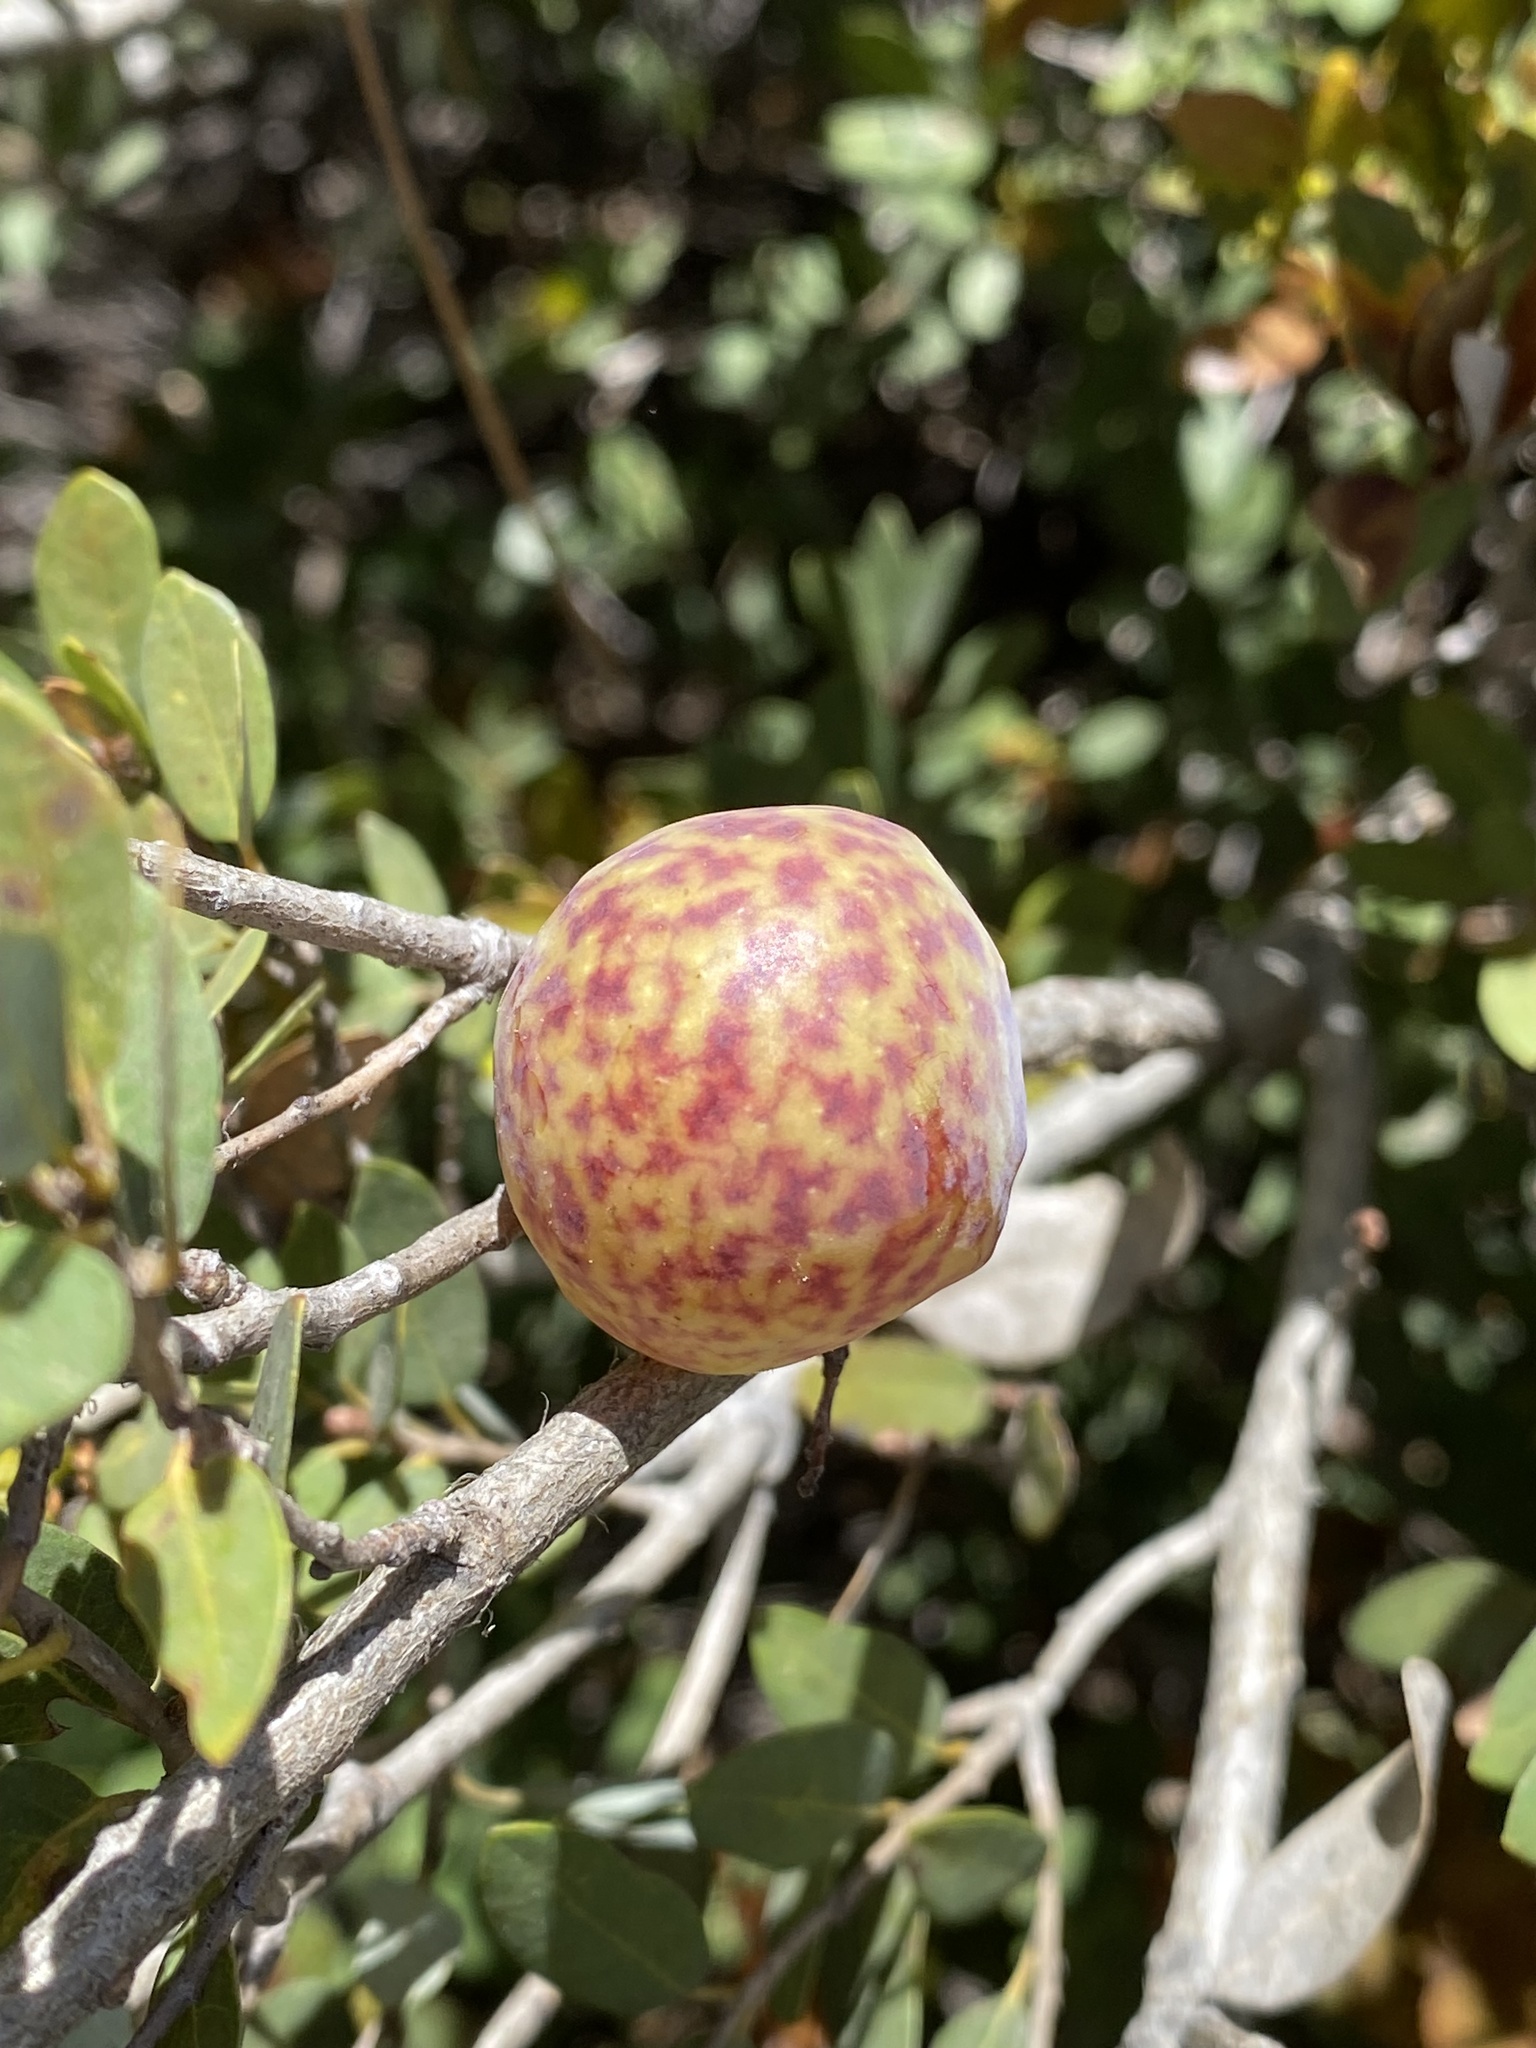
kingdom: Animalia
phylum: Arthropoda
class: Insecta
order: Hymenoptera
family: Cynipidae
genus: Andricus
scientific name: Andricus
